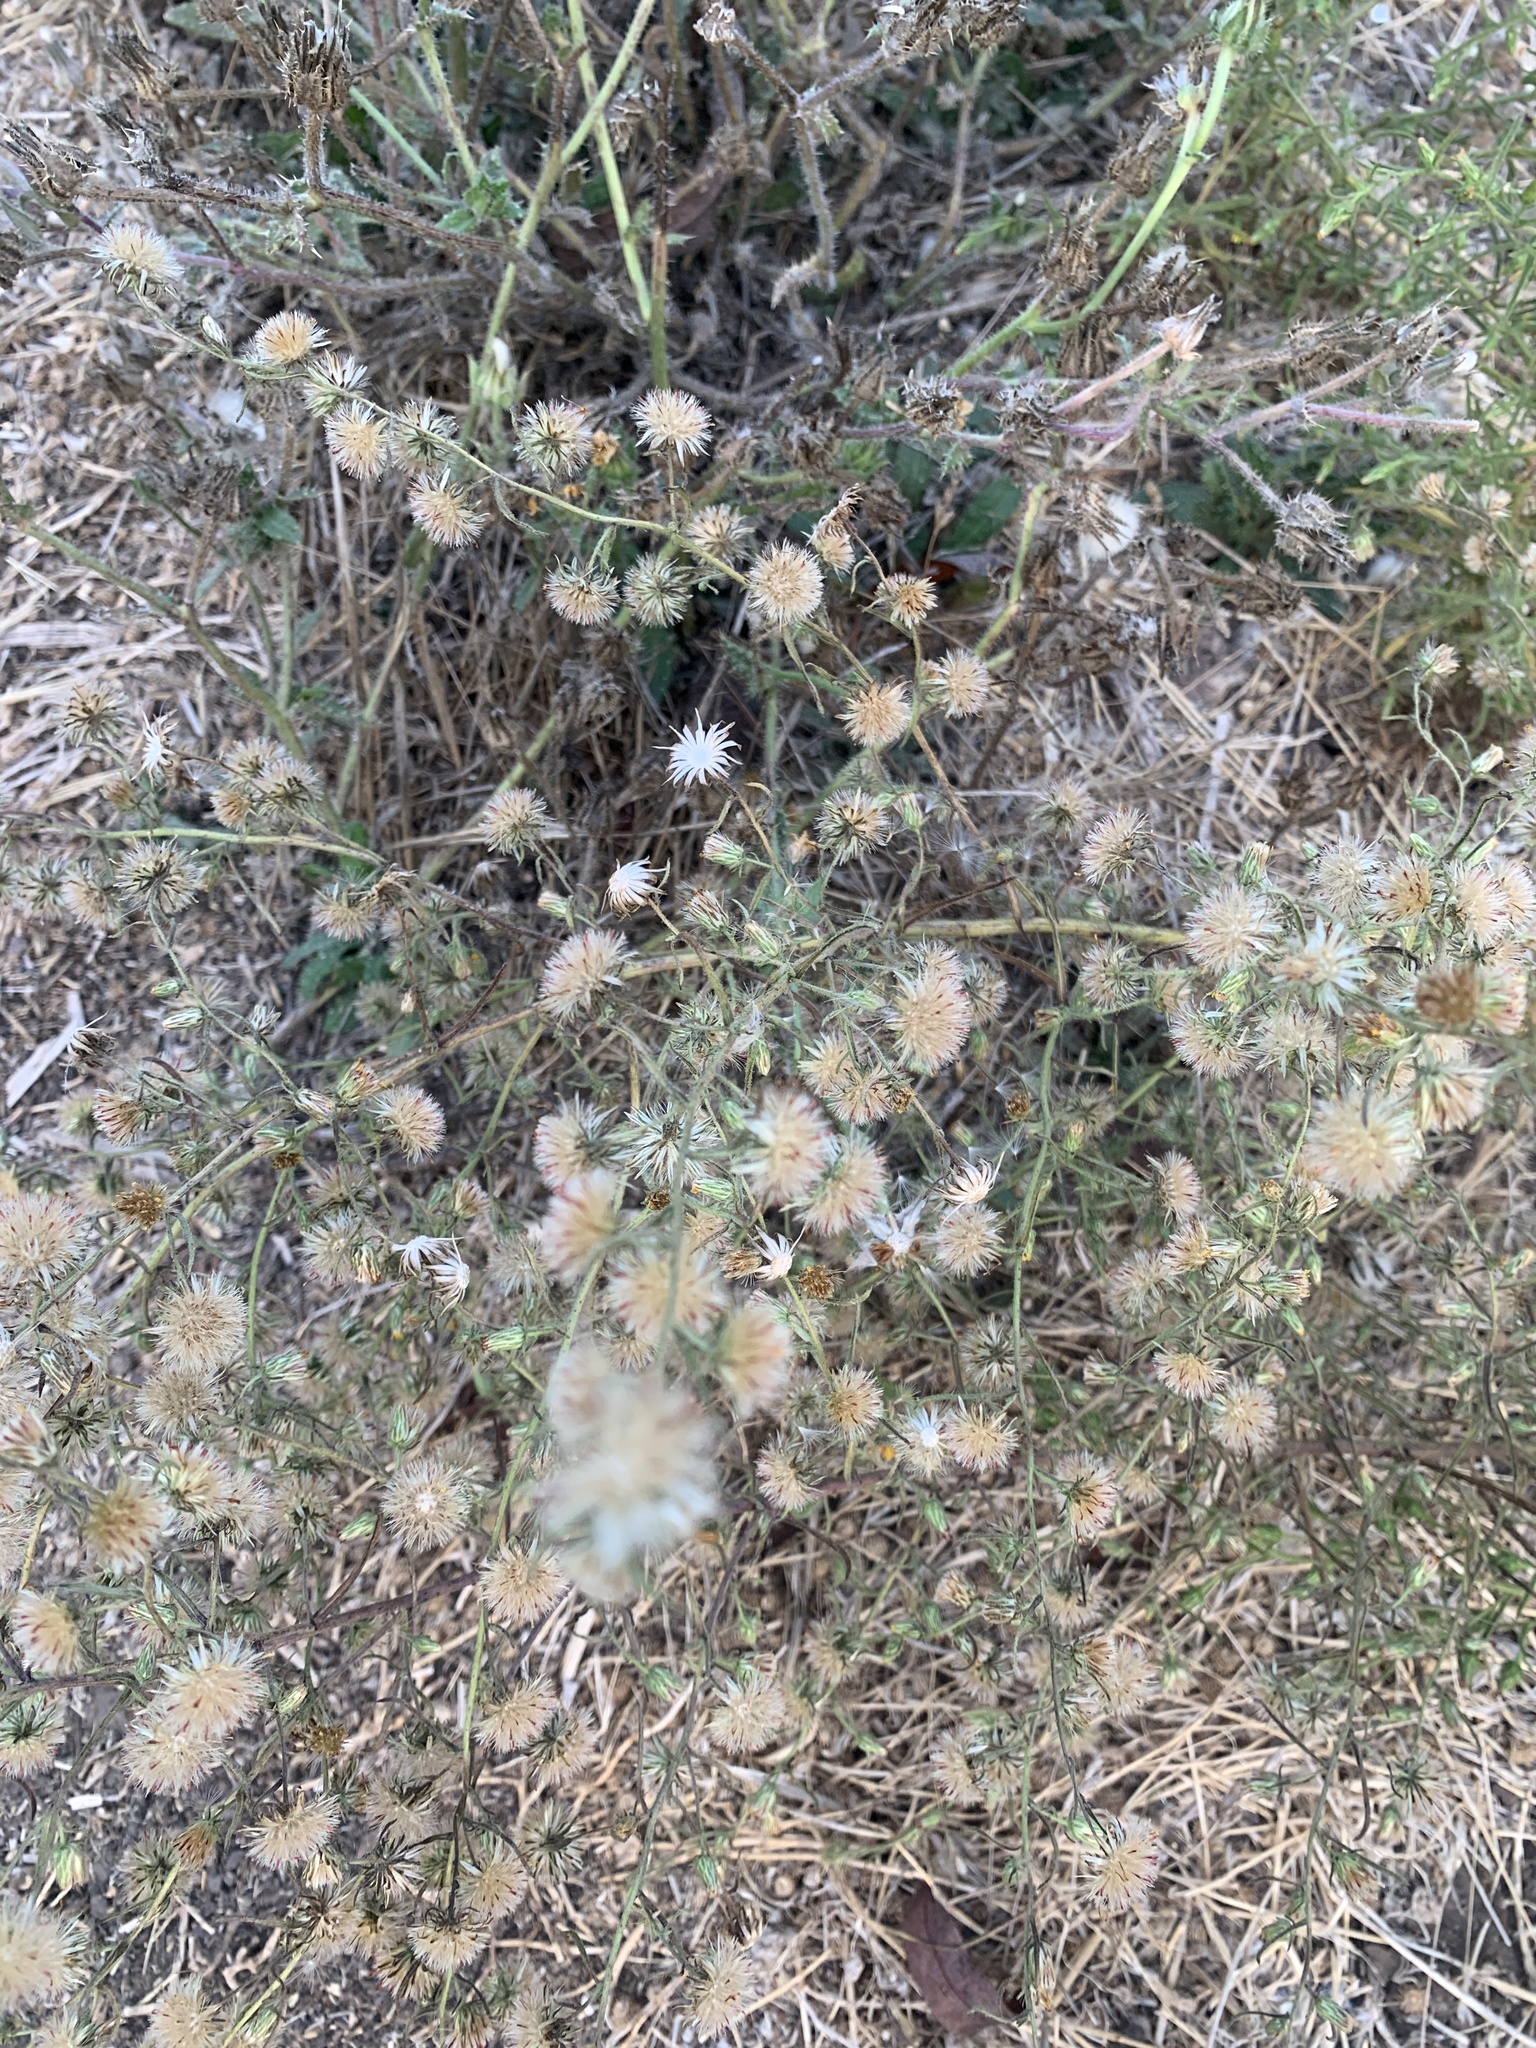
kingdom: Plantae
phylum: Tracheophyta
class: Magnoliopsida
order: Asterales
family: Asteraceae
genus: Dittrichia
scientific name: Dittrichia graveolens
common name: Stinking fleabane
